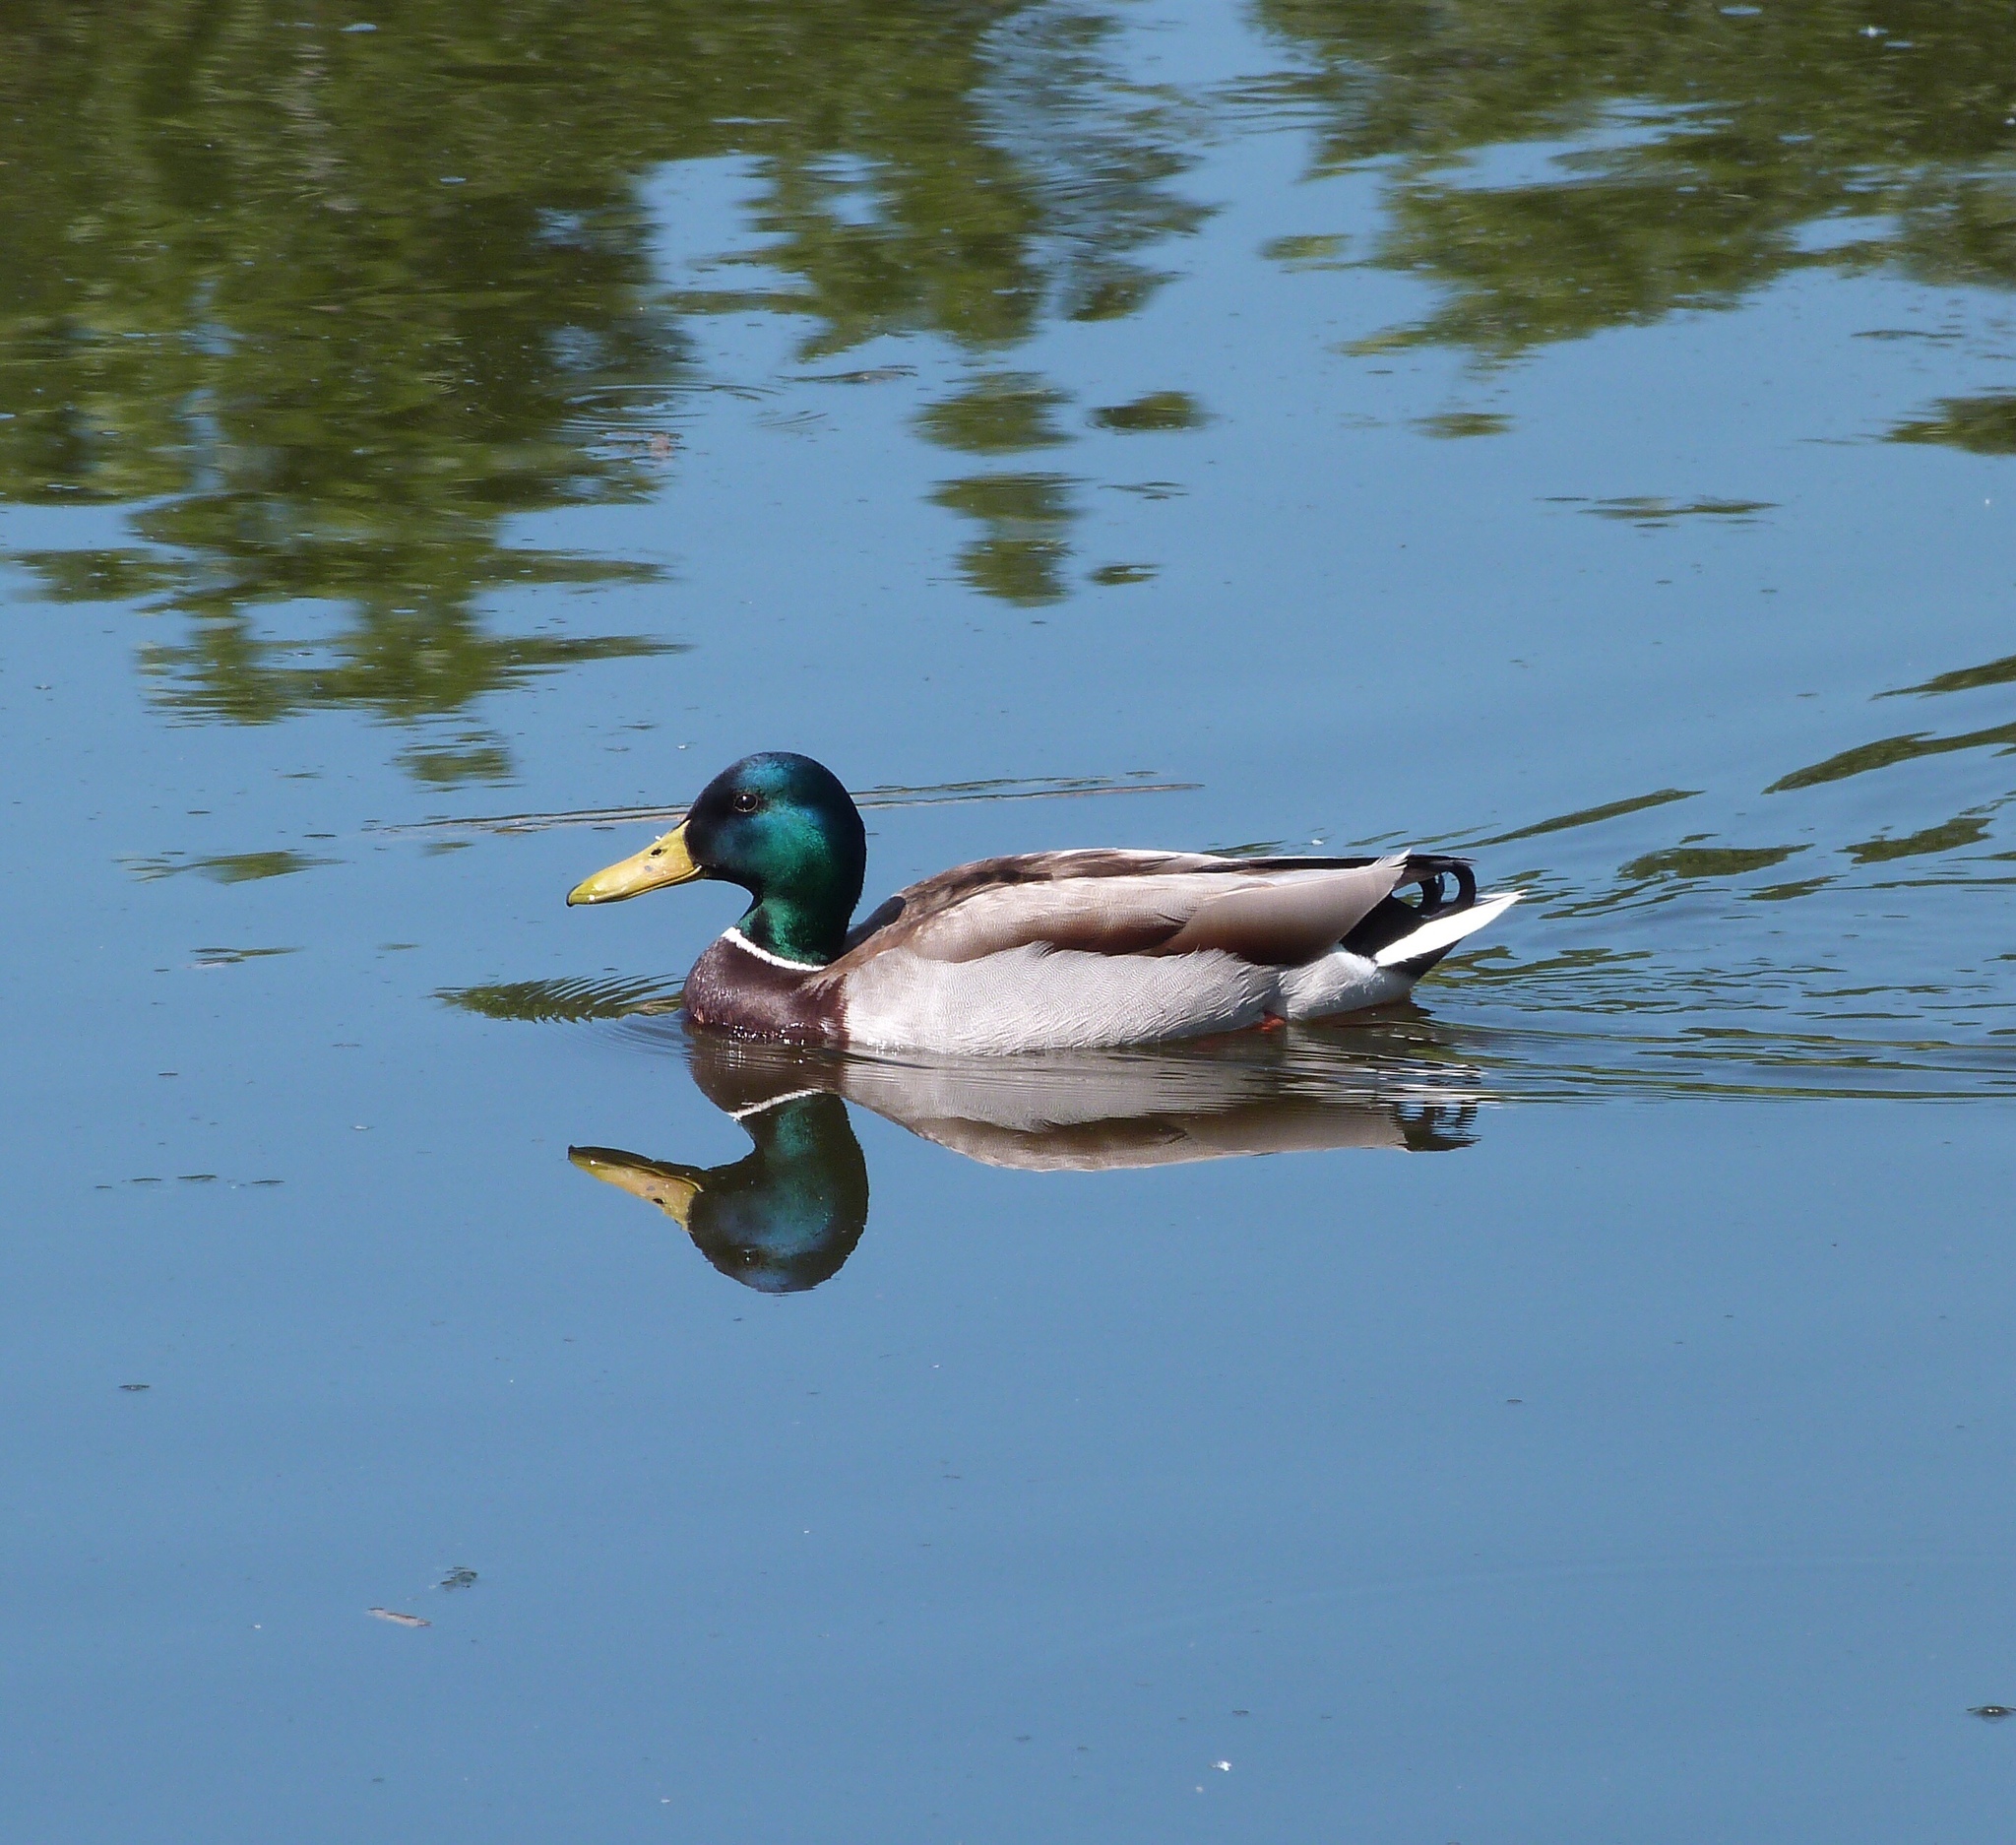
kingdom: Animalia
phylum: Chordata
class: Aves
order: Anseriformes
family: Anatidae
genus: Anas
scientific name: Anas platyrhynchos
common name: Mallard
